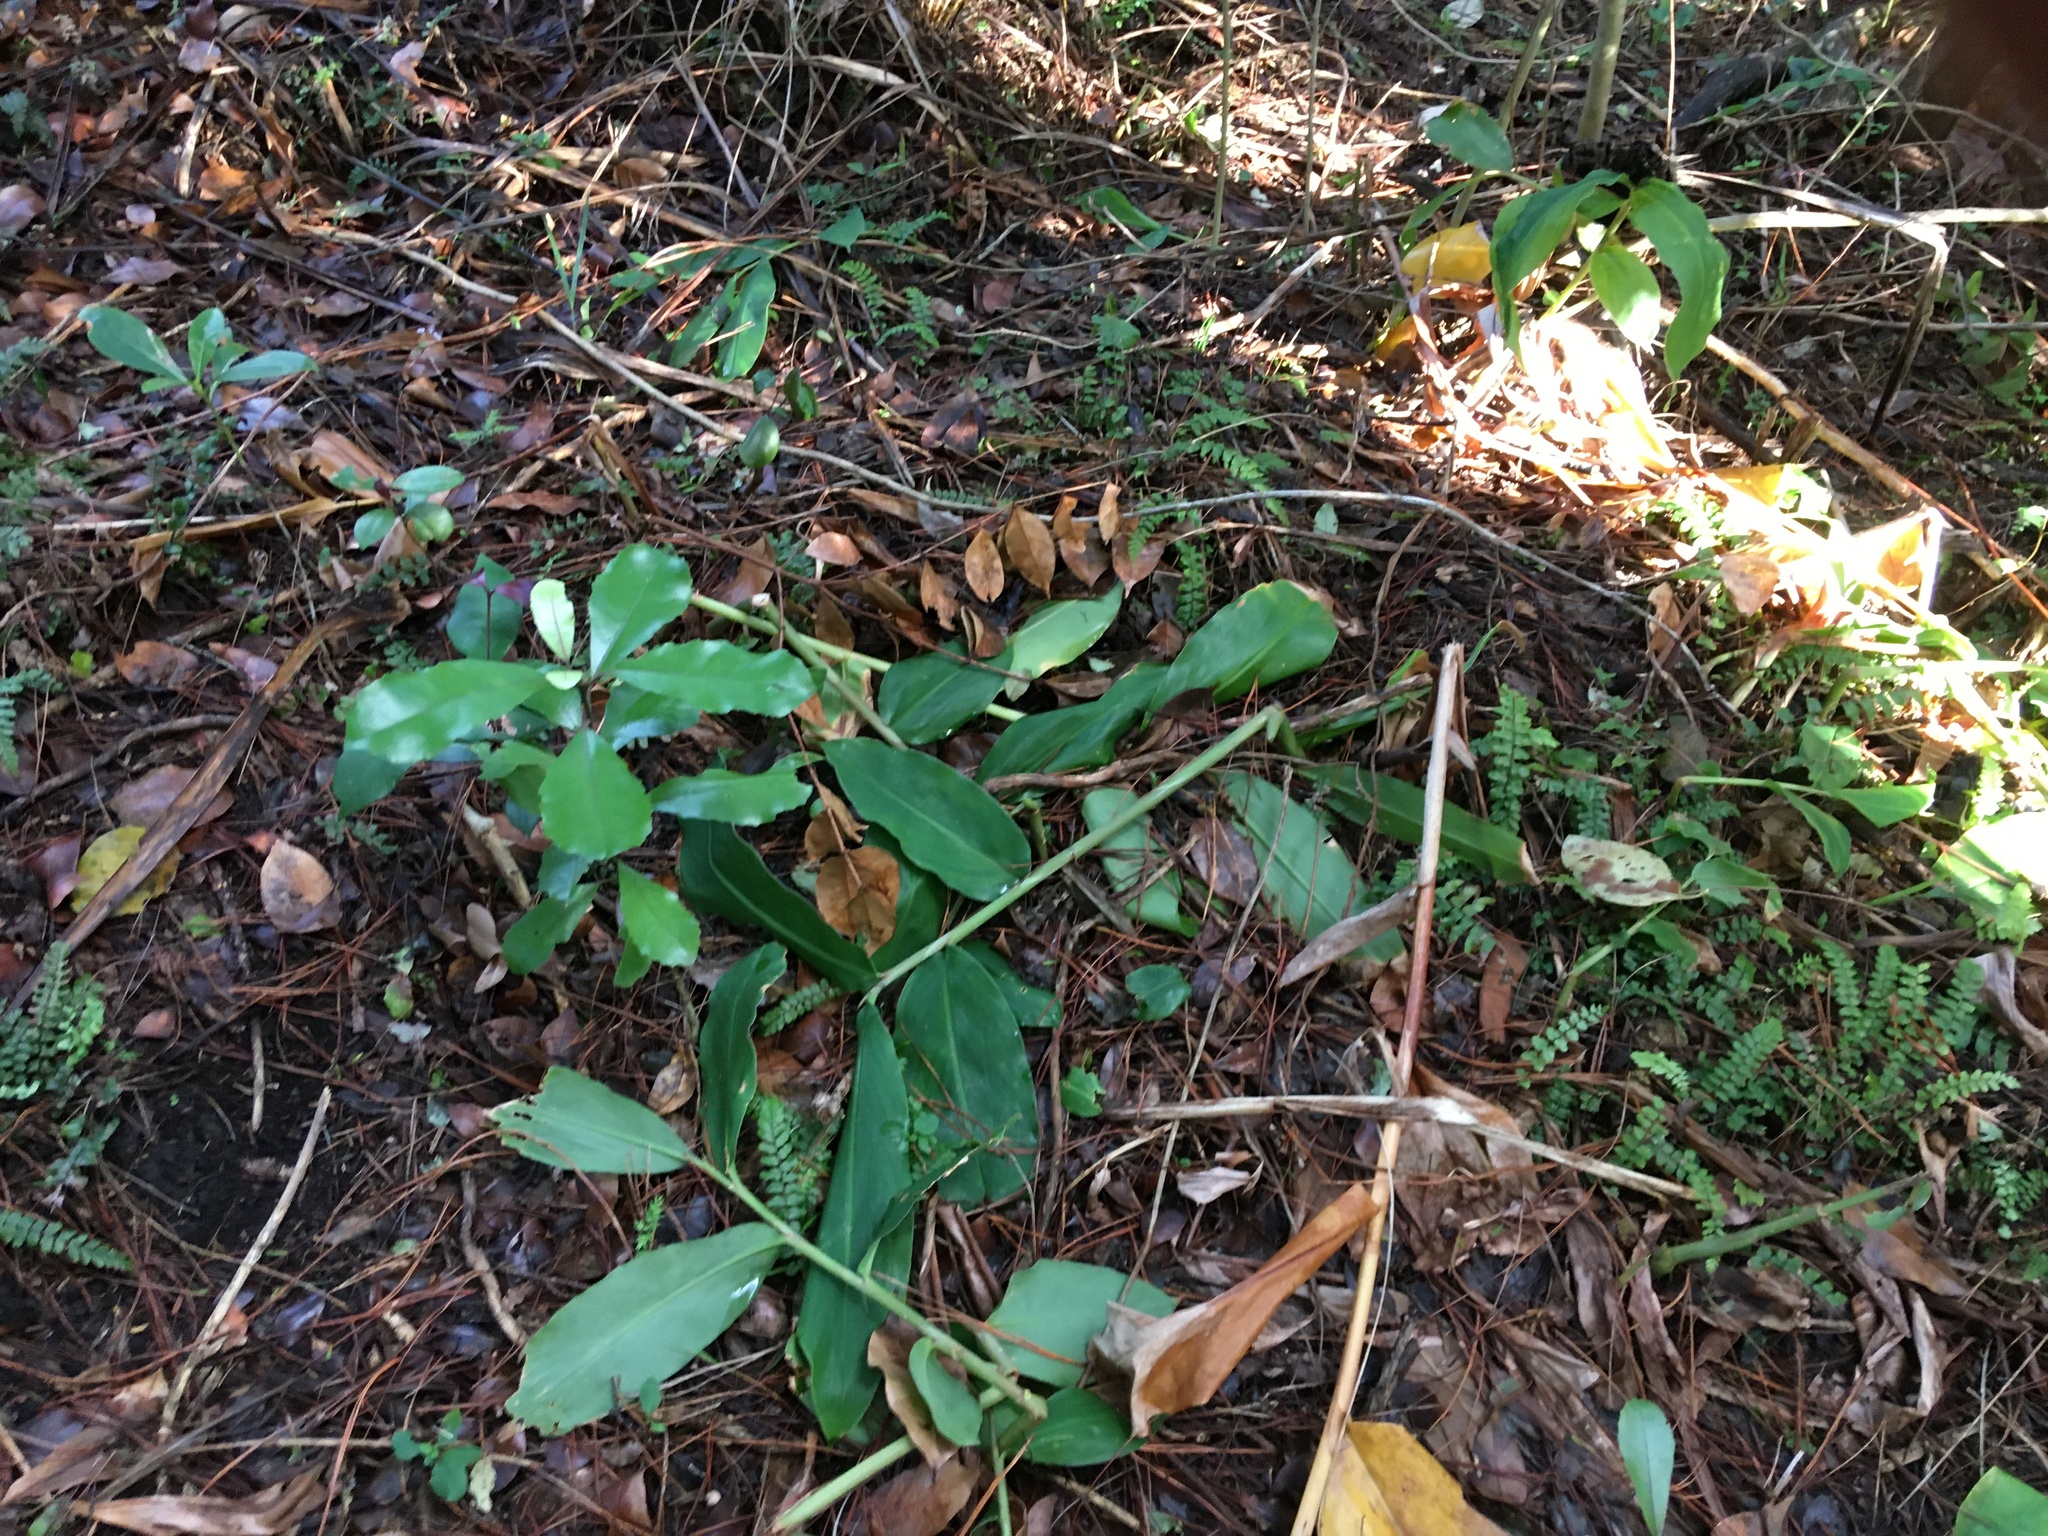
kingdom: Plantae
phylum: Tracheophyta
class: Liliopsida
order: Zingiberales
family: Zingiberaceae
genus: Hedychium
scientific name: Hedychium gardnerianum
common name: Himalayan ginger
